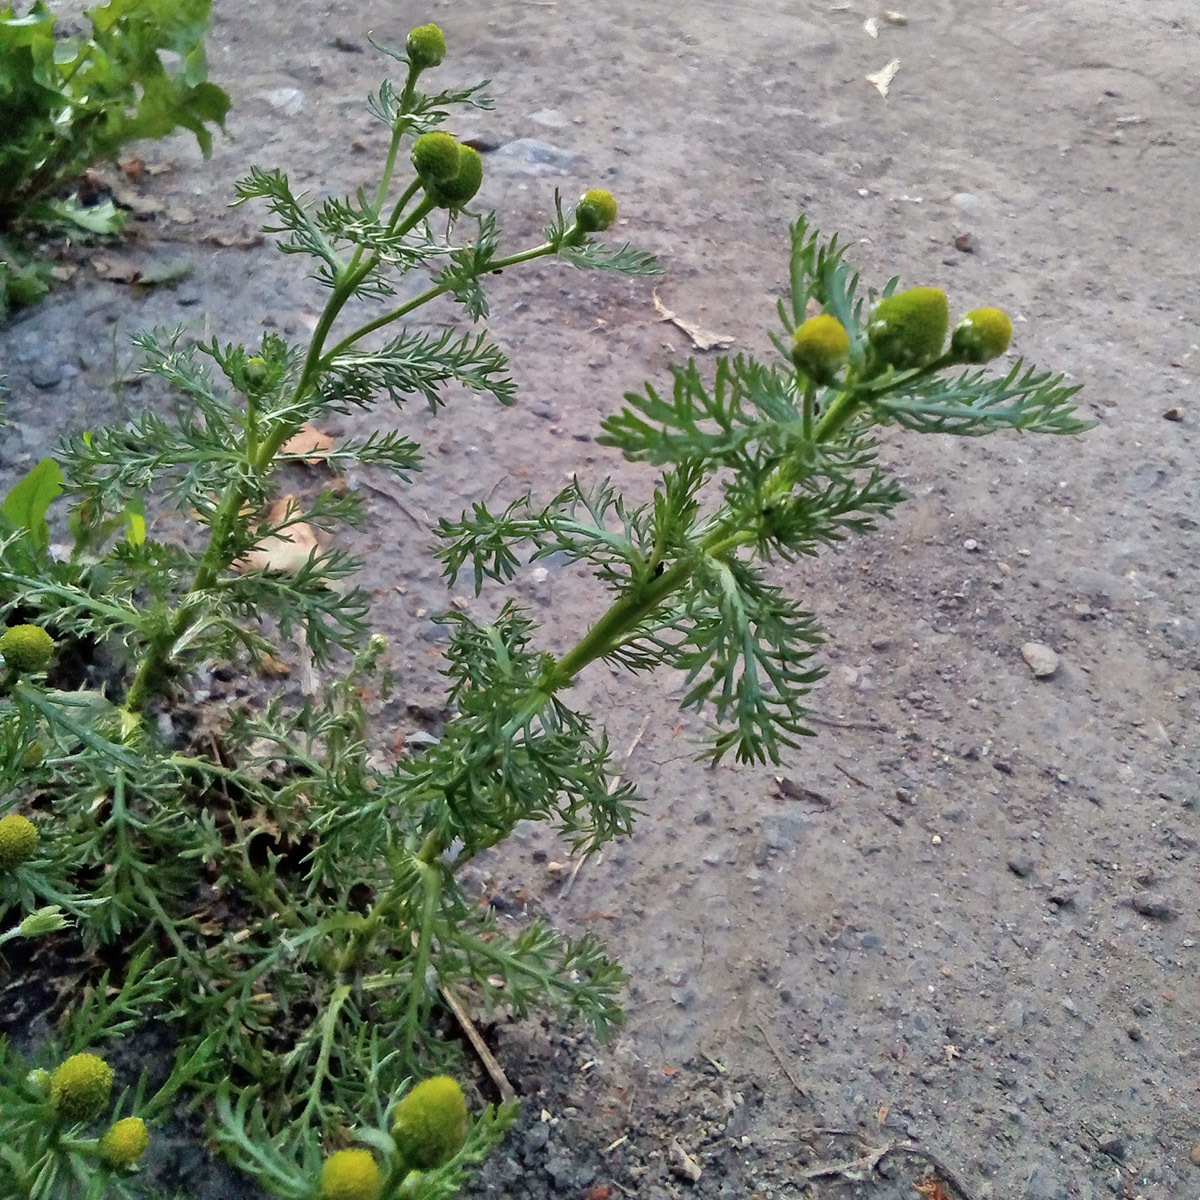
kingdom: Plantae
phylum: Tracheophyta
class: Magnoliopsida
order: Asterales
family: Asteraceae
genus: Matricaria
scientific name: Matricaria discoidea
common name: Disc mayweed
